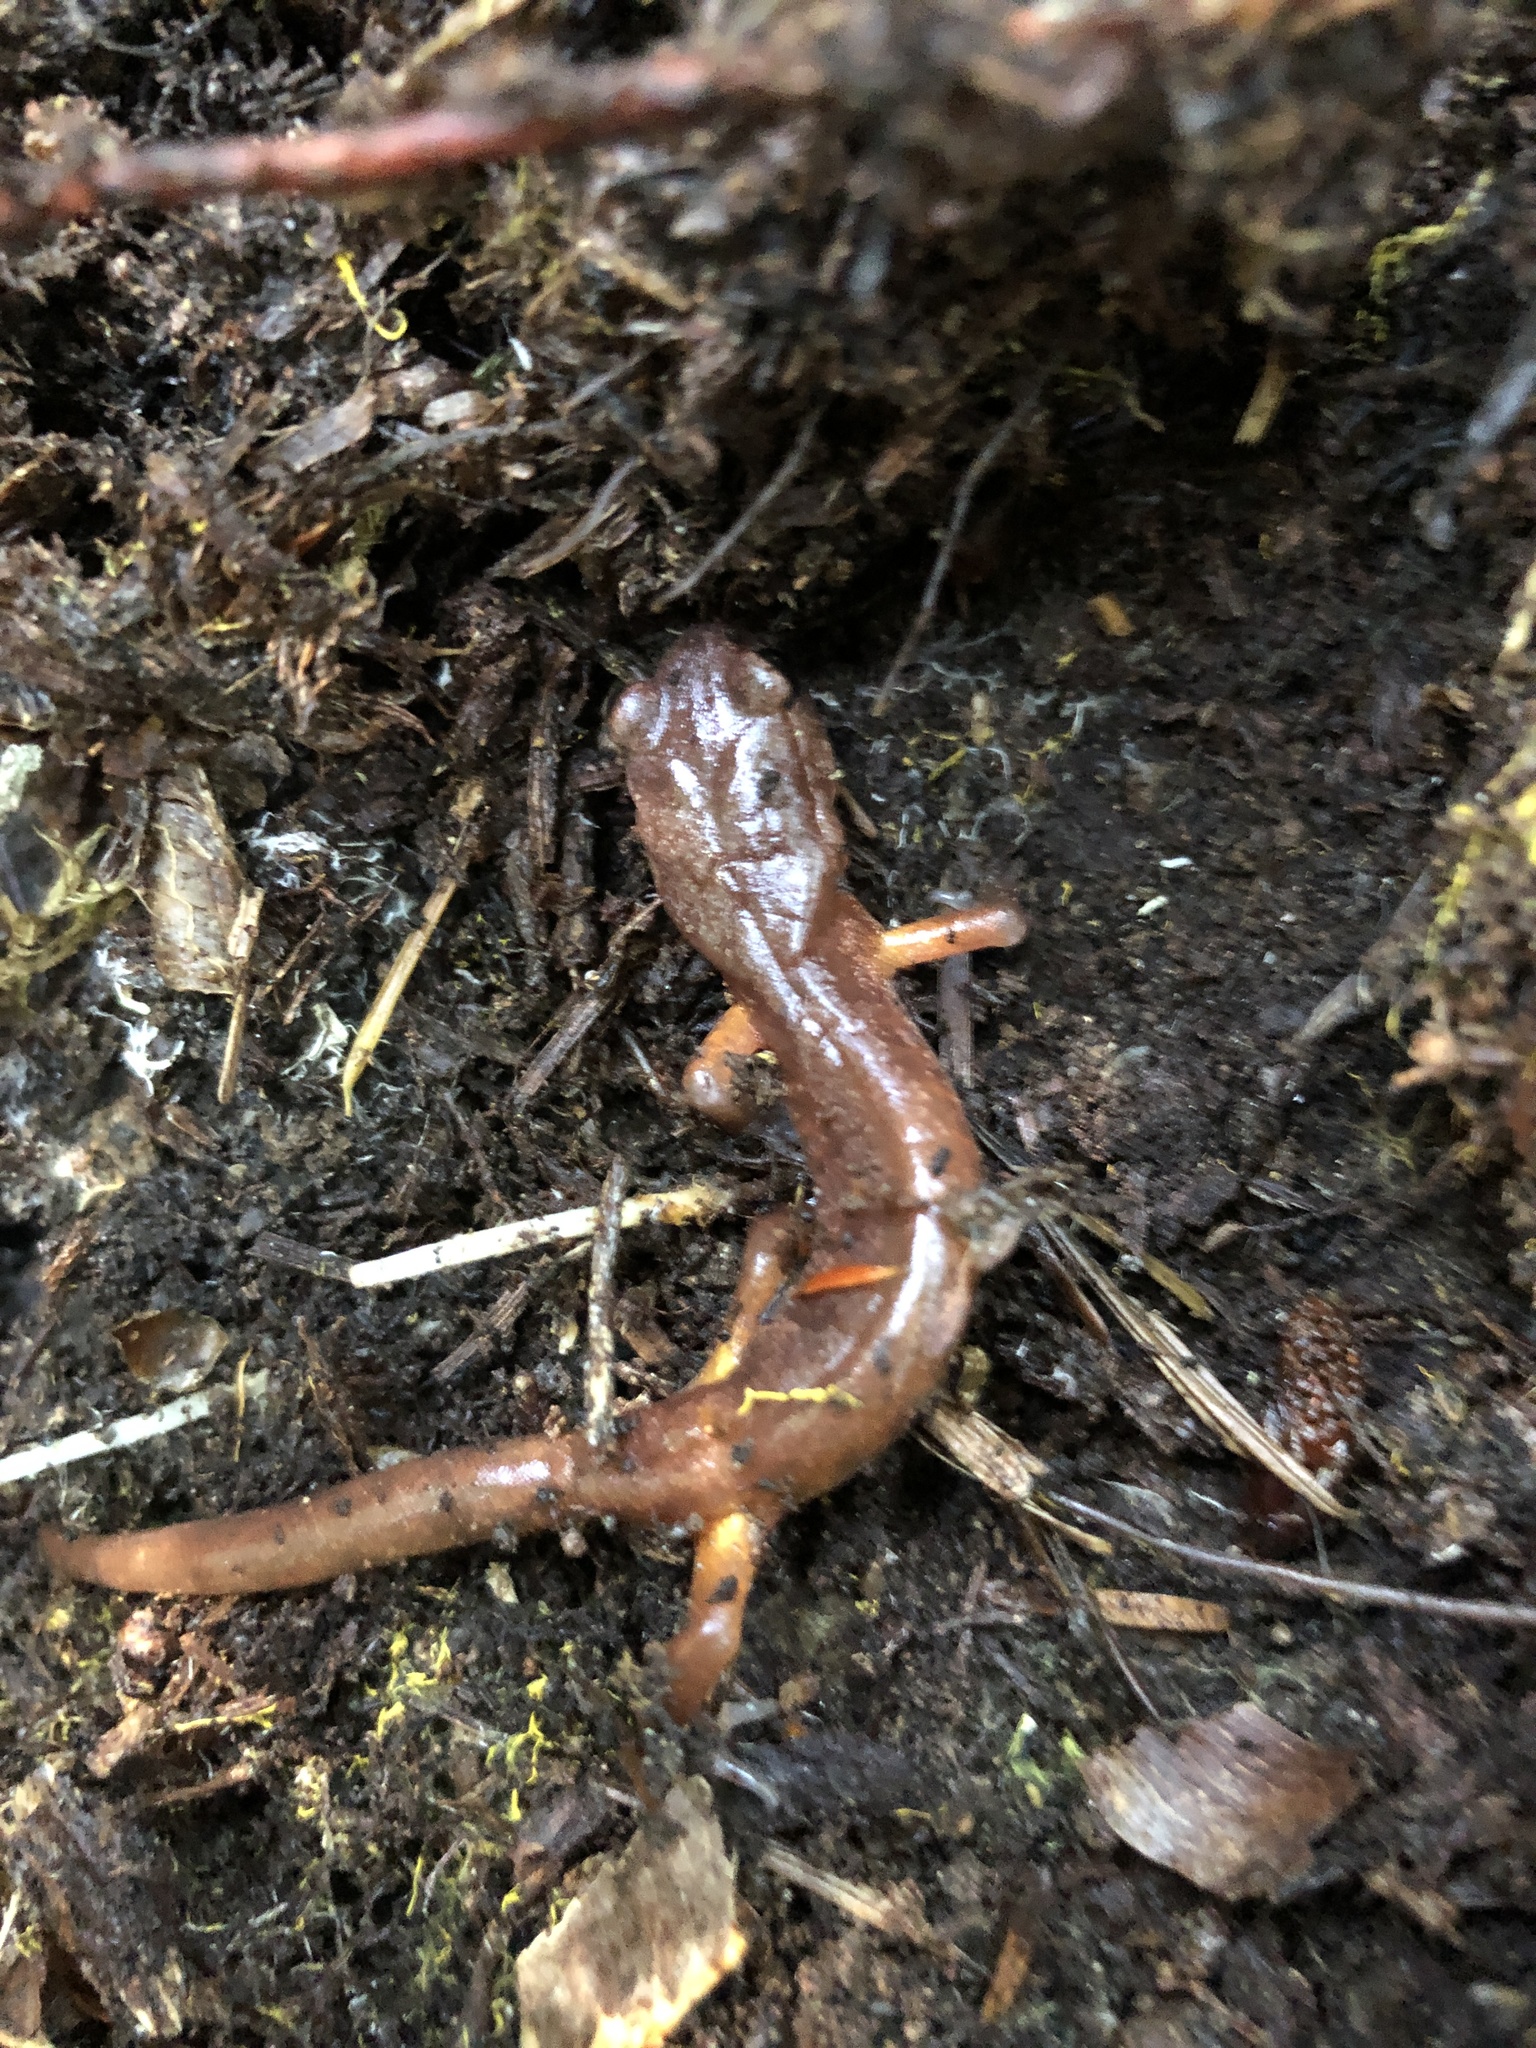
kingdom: Animalia
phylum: Chordata
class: Amphibia
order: Caudata
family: Plethodontidae
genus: Ensatina
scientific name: Ensatina eschscholtzii
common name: Ensatina
